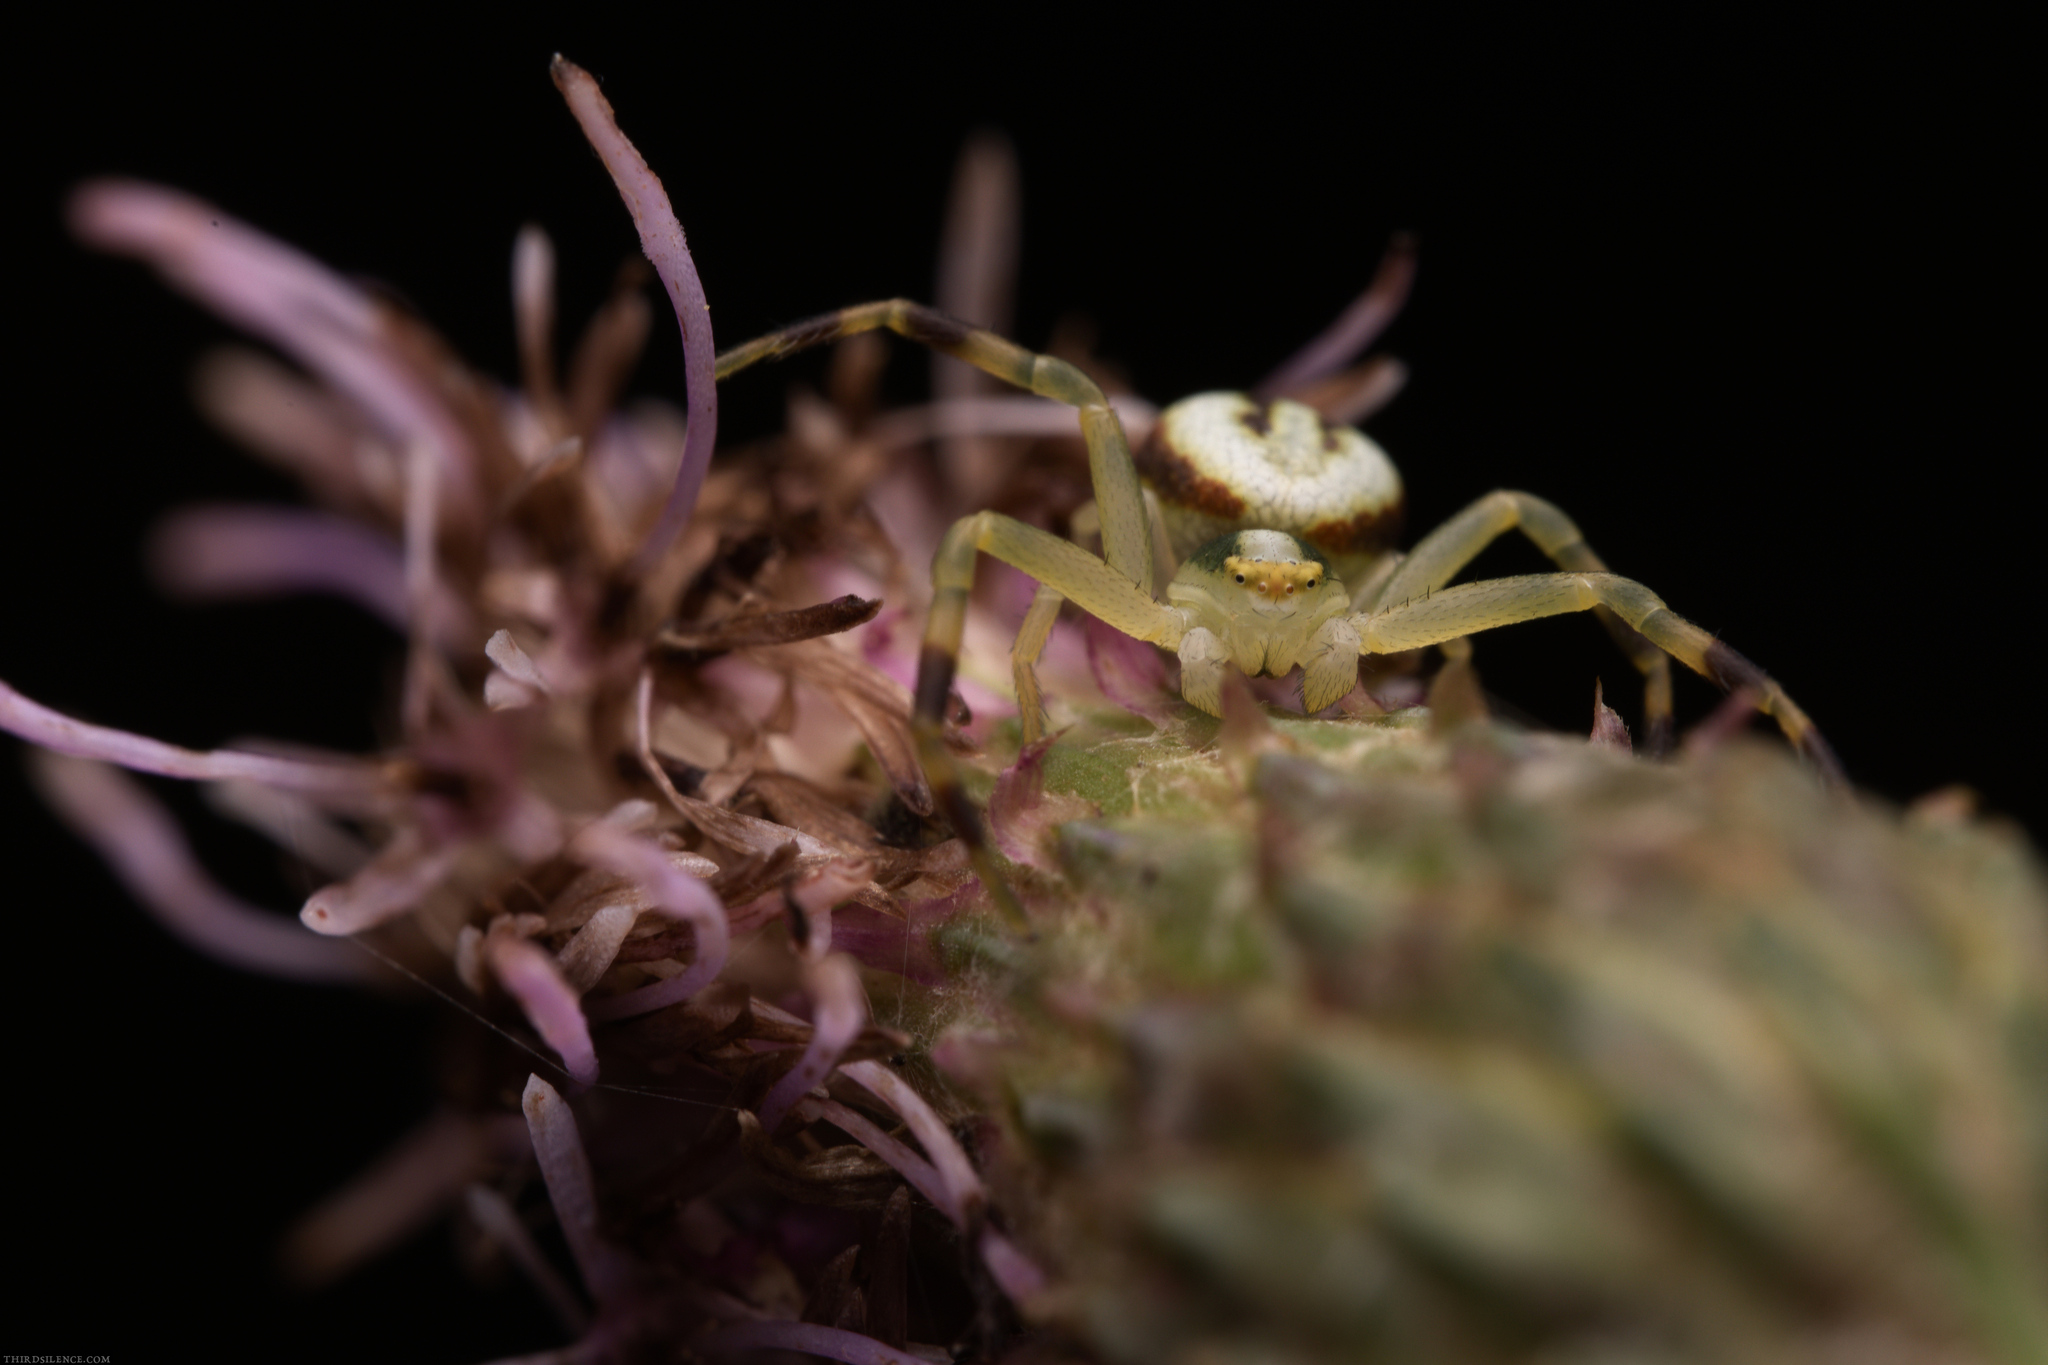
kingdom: Animalia
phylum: Arthropoda
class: Arachnida
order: Araneae
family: Thomisidae
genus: Misumena
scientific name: Misumena vatia
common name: Goldenrod crab spider
